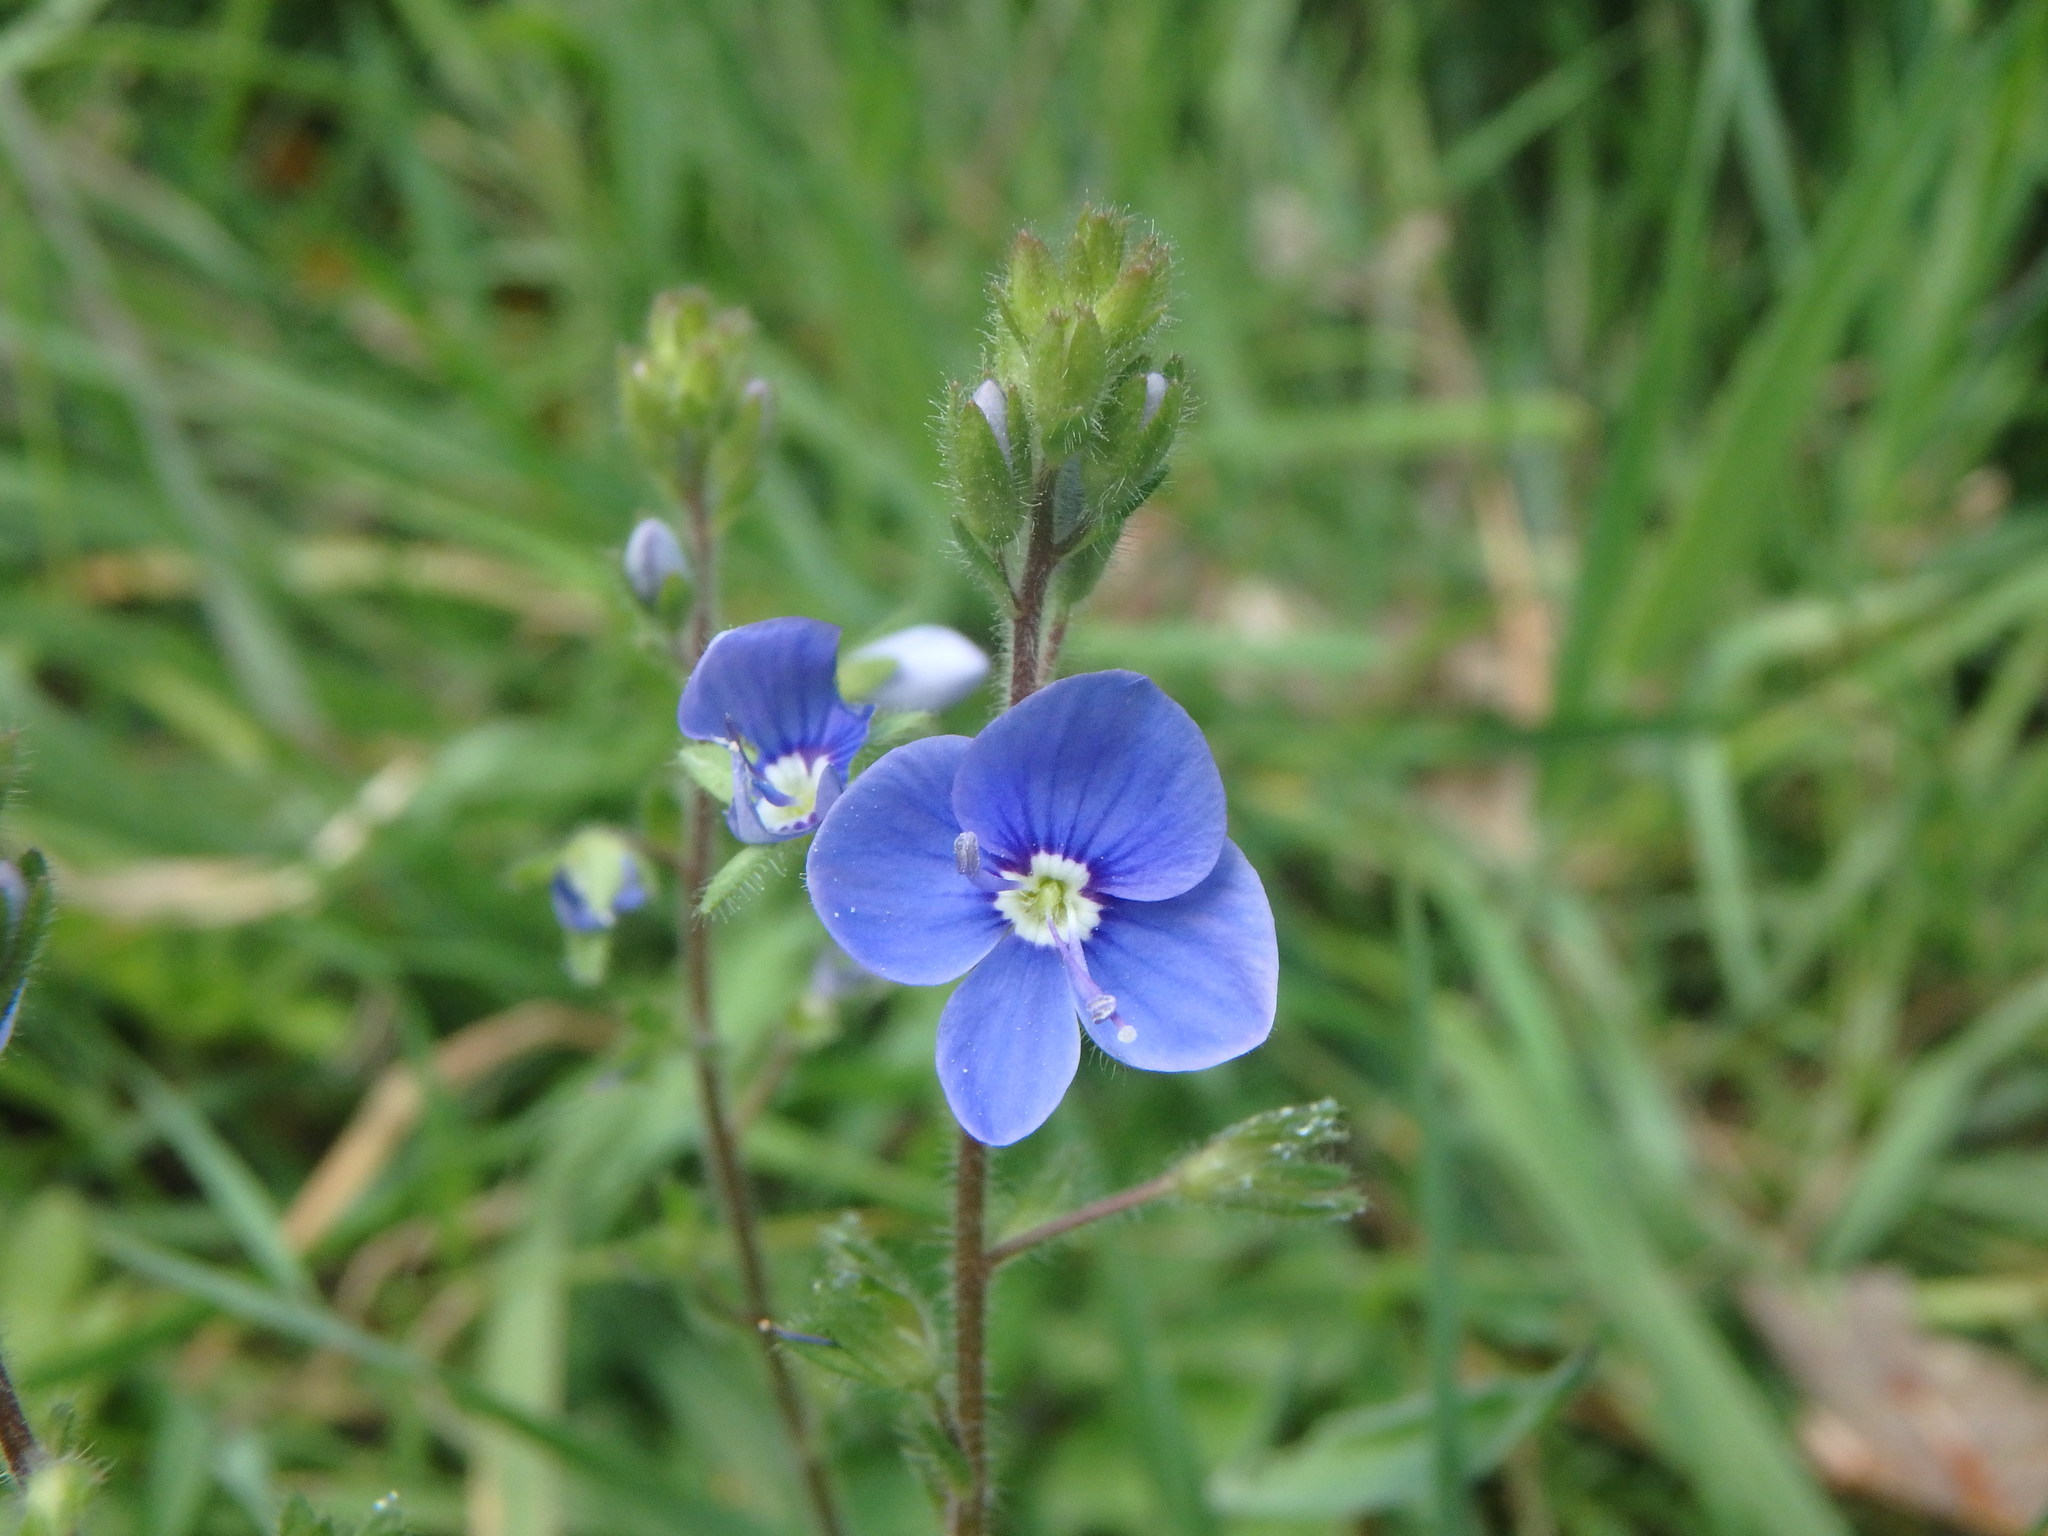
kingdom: Plantae
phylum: Tracheophyta
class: Magnoliopsida
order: Lamiales
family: Plantaginaceae
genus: Veronica
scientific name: Veronica chamaedrys
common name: Germander speedwell
